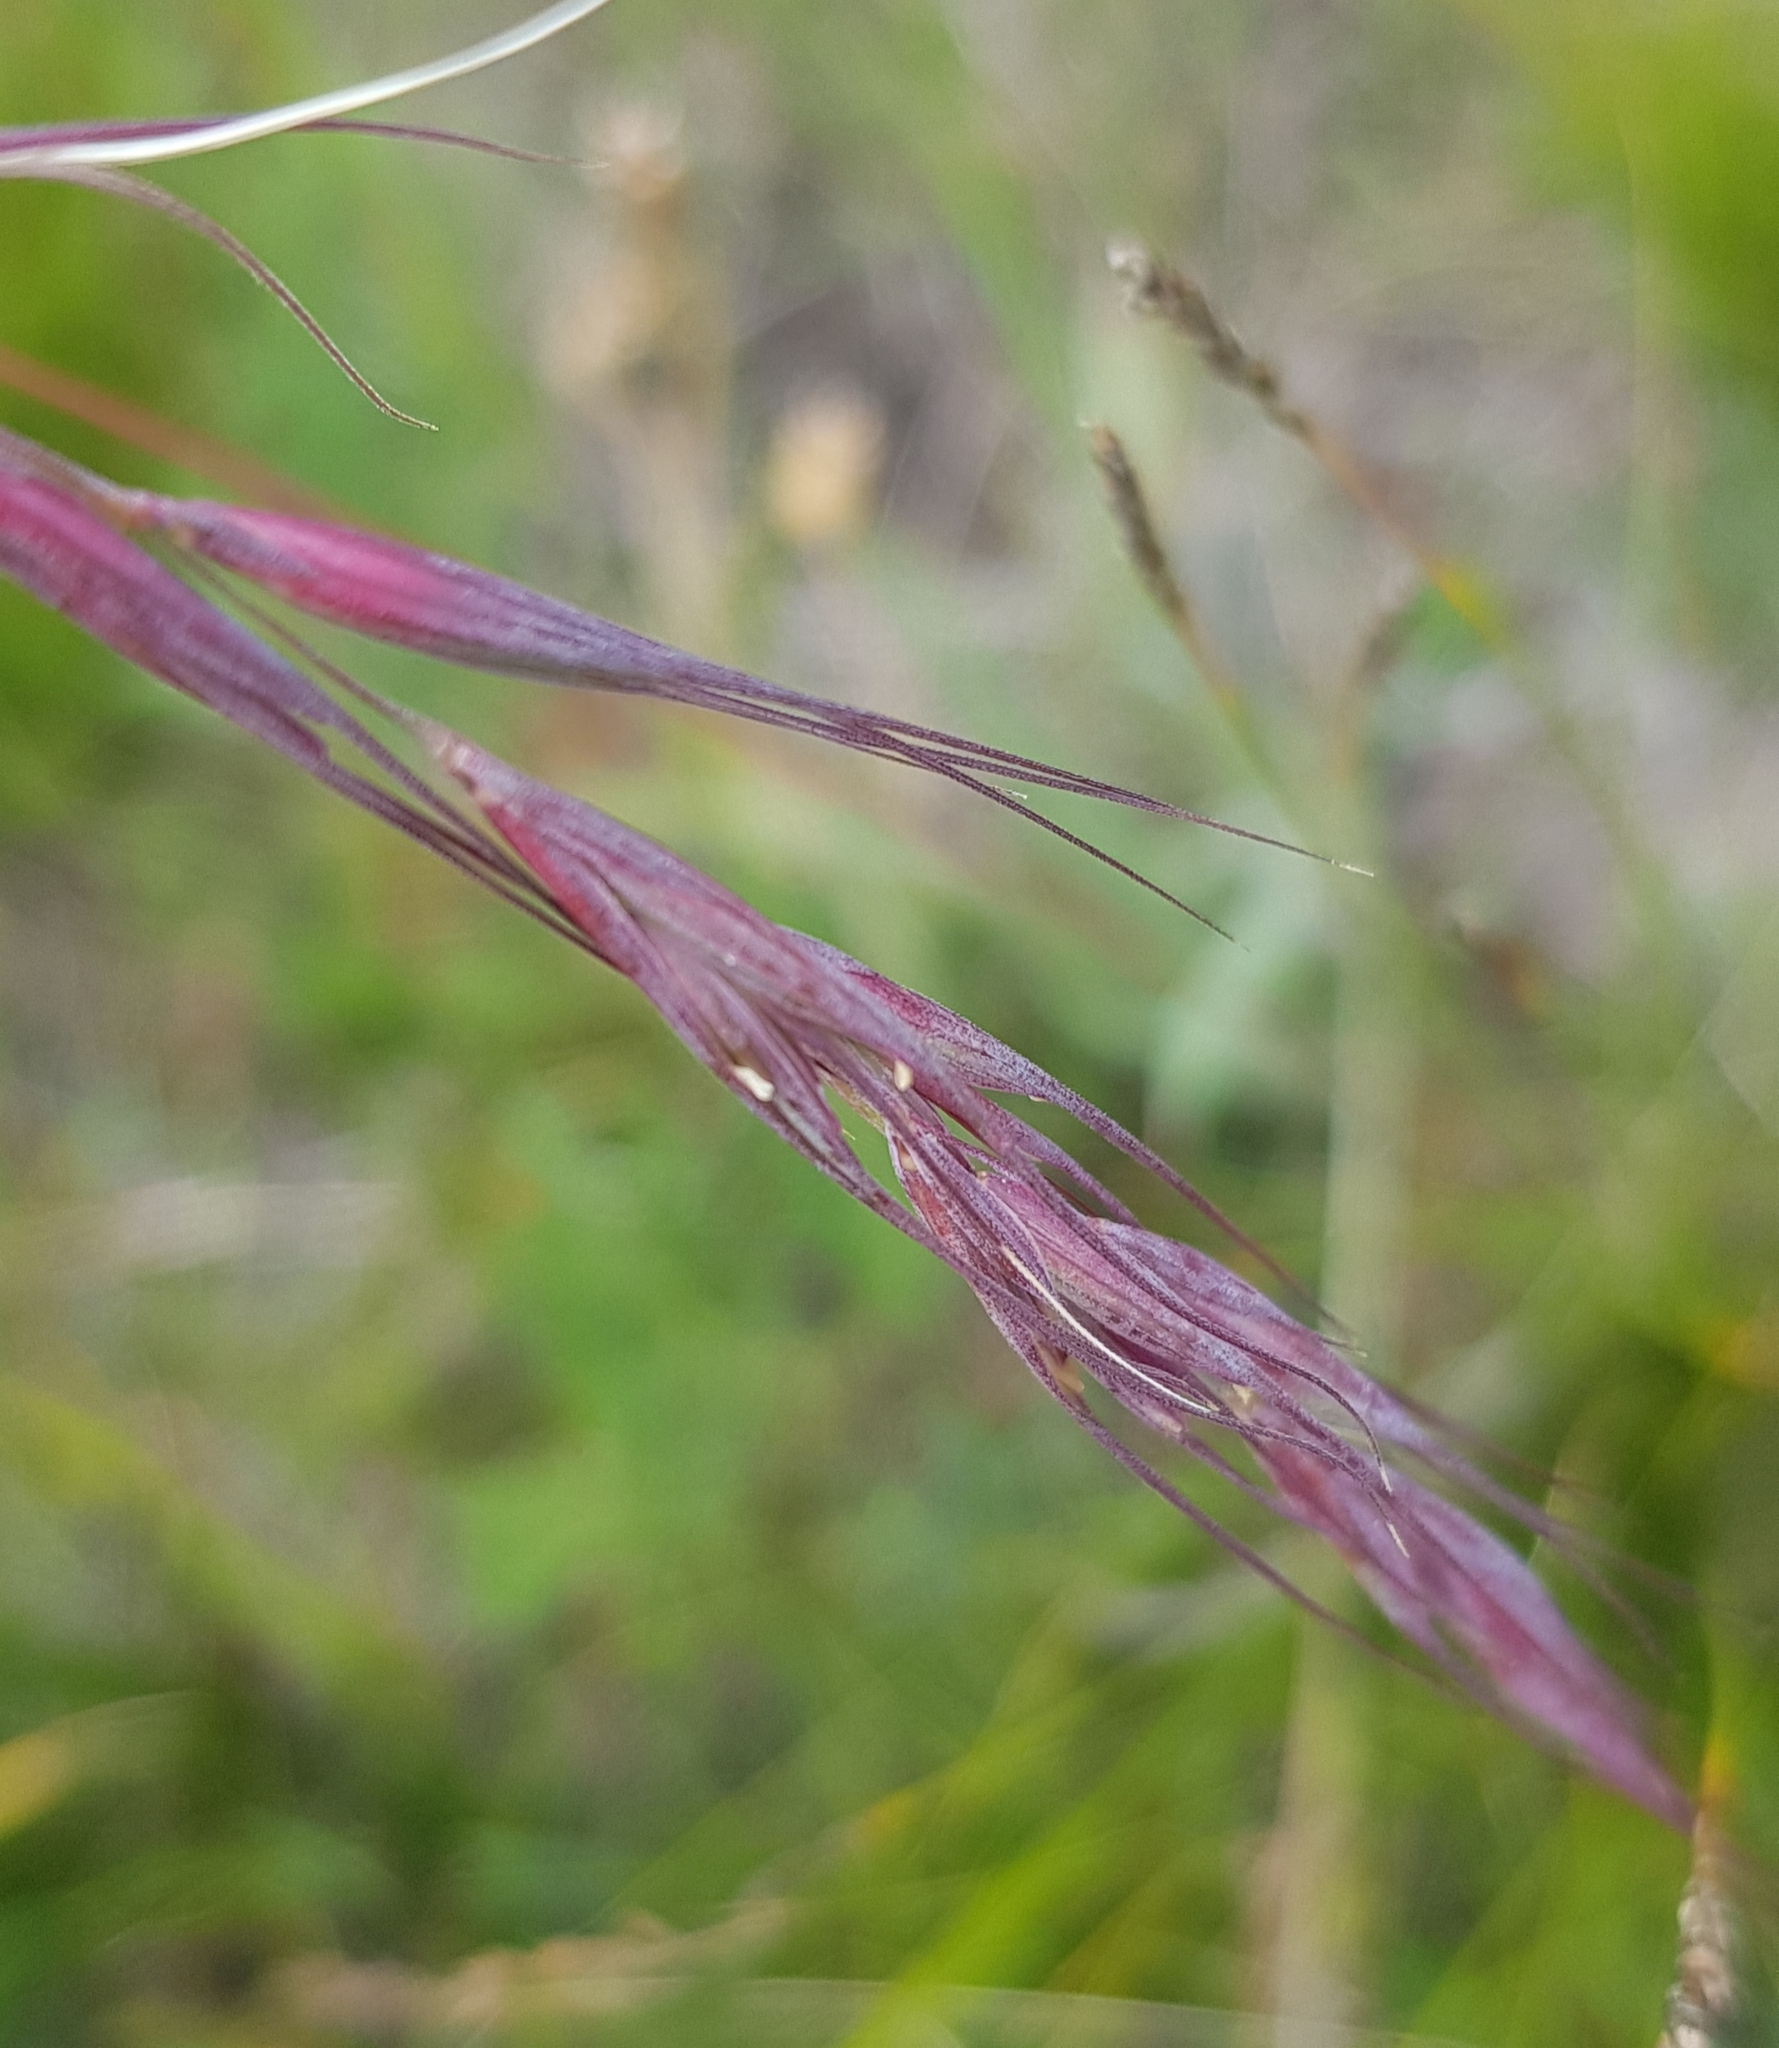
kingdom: Plantae
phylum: Tracheophyta
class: Liliopsida
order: Poales
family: Poaceae
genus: Elymus
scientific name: Elymus sibiricus
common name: Siberian wildrye
